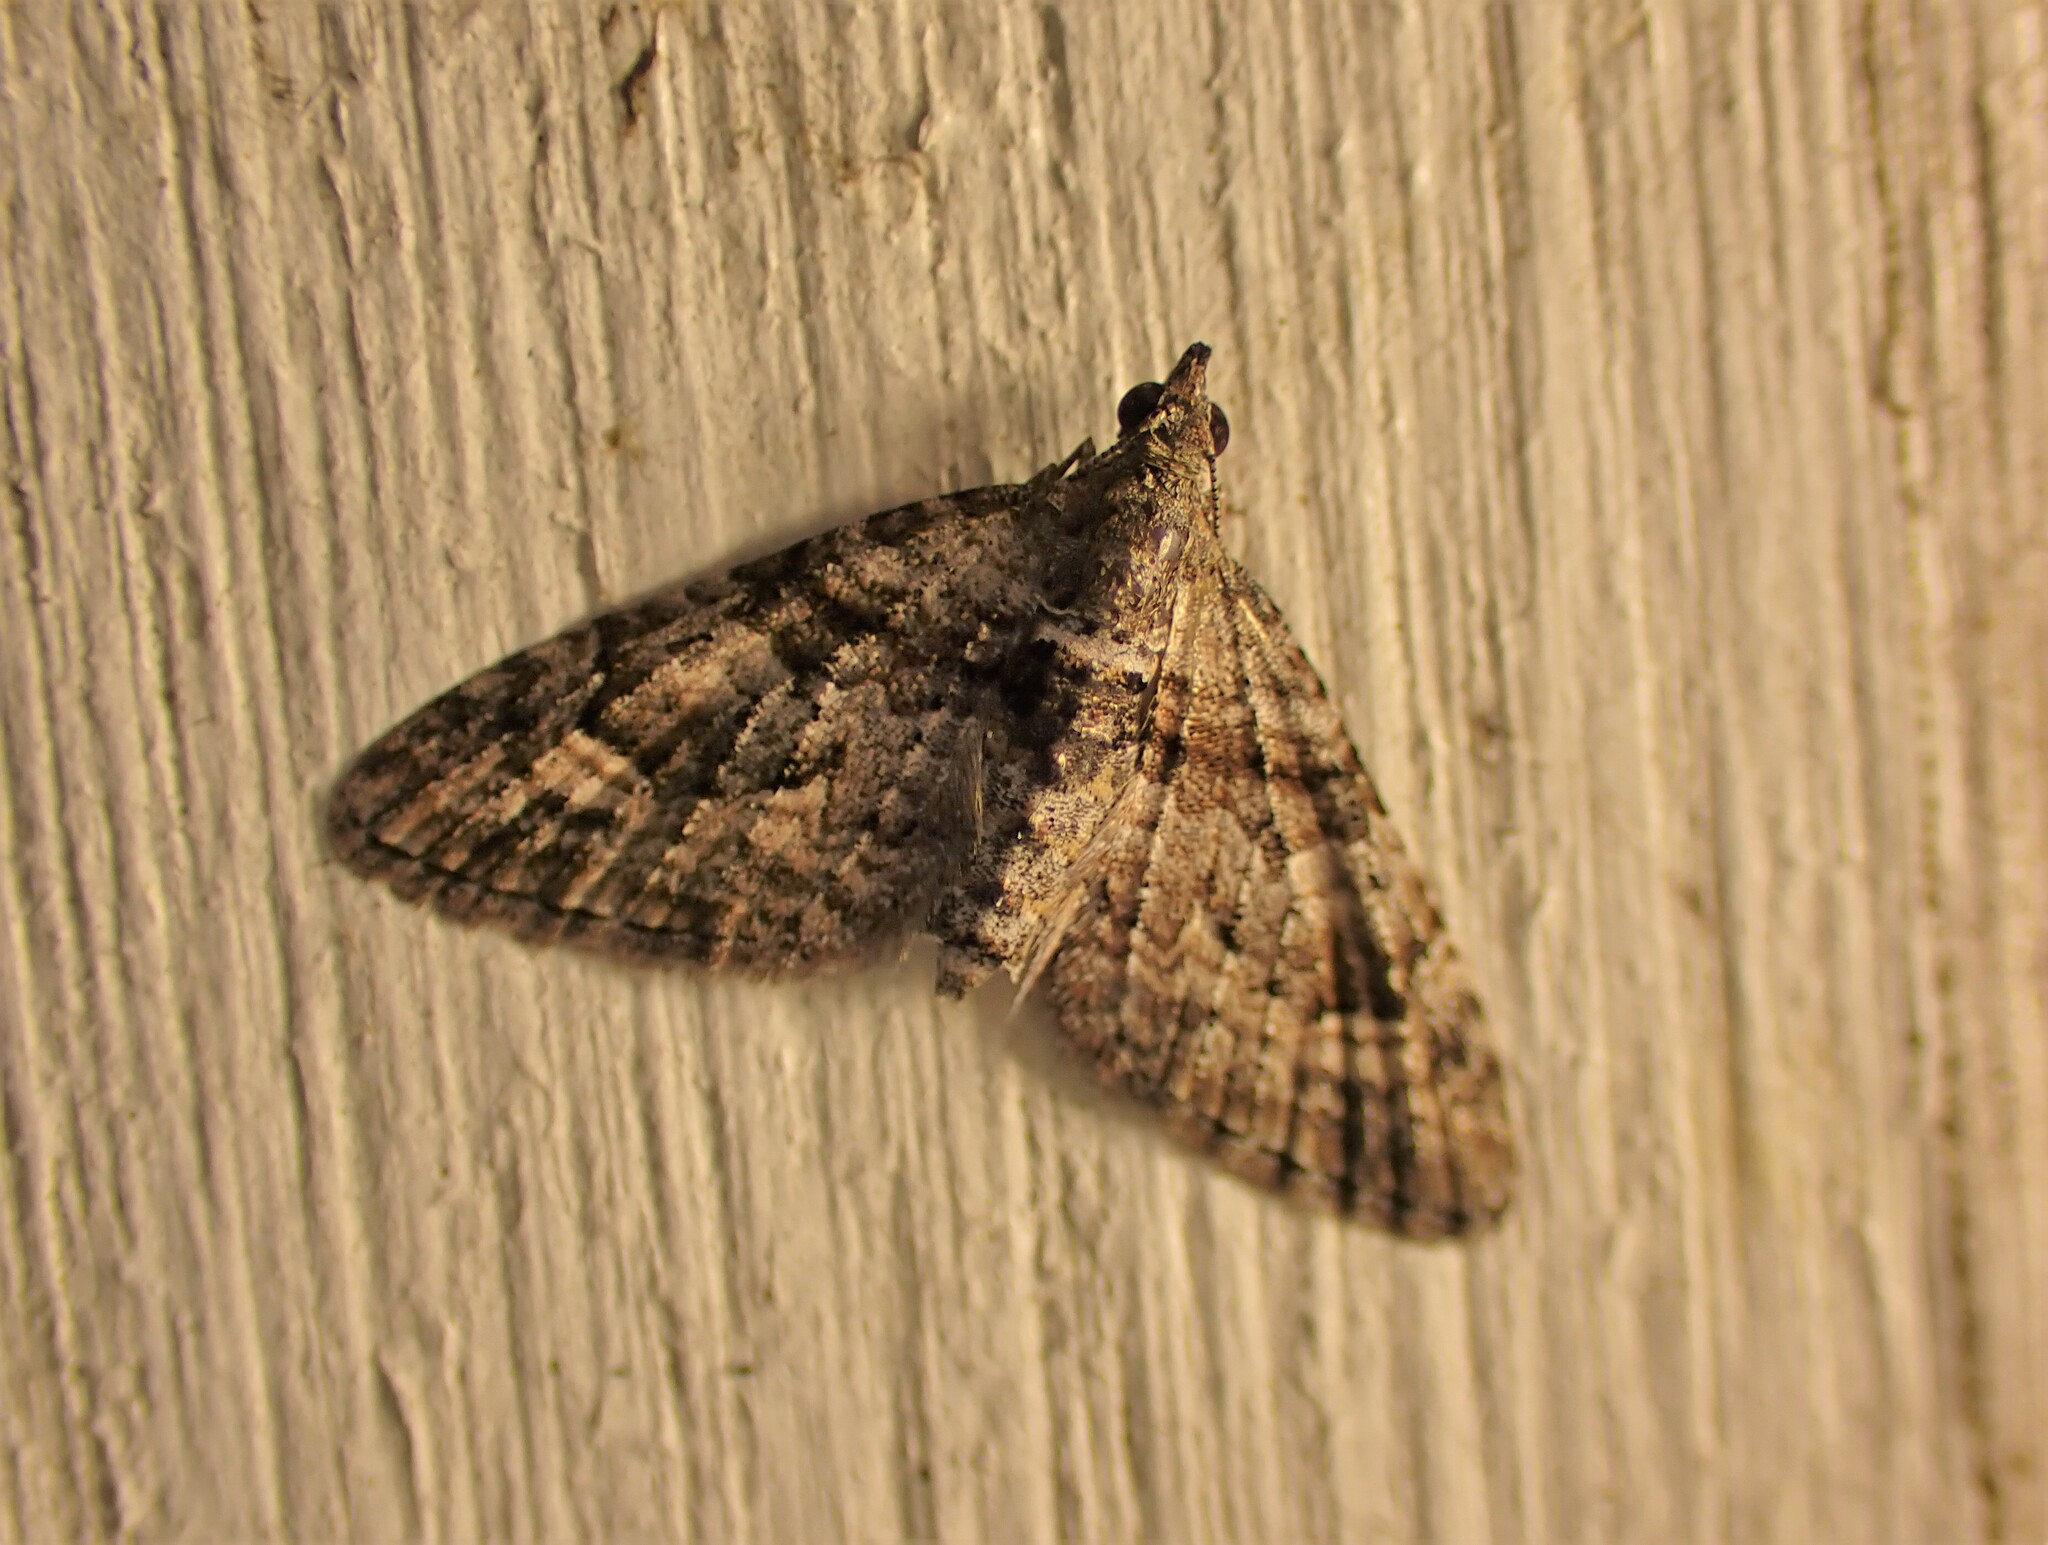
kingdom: Animalia
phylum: Arthropoda
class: Insecta
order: Lepidoptera
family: Geometridae
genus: Phrissogonus
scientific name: Phrissogonus laticostata
